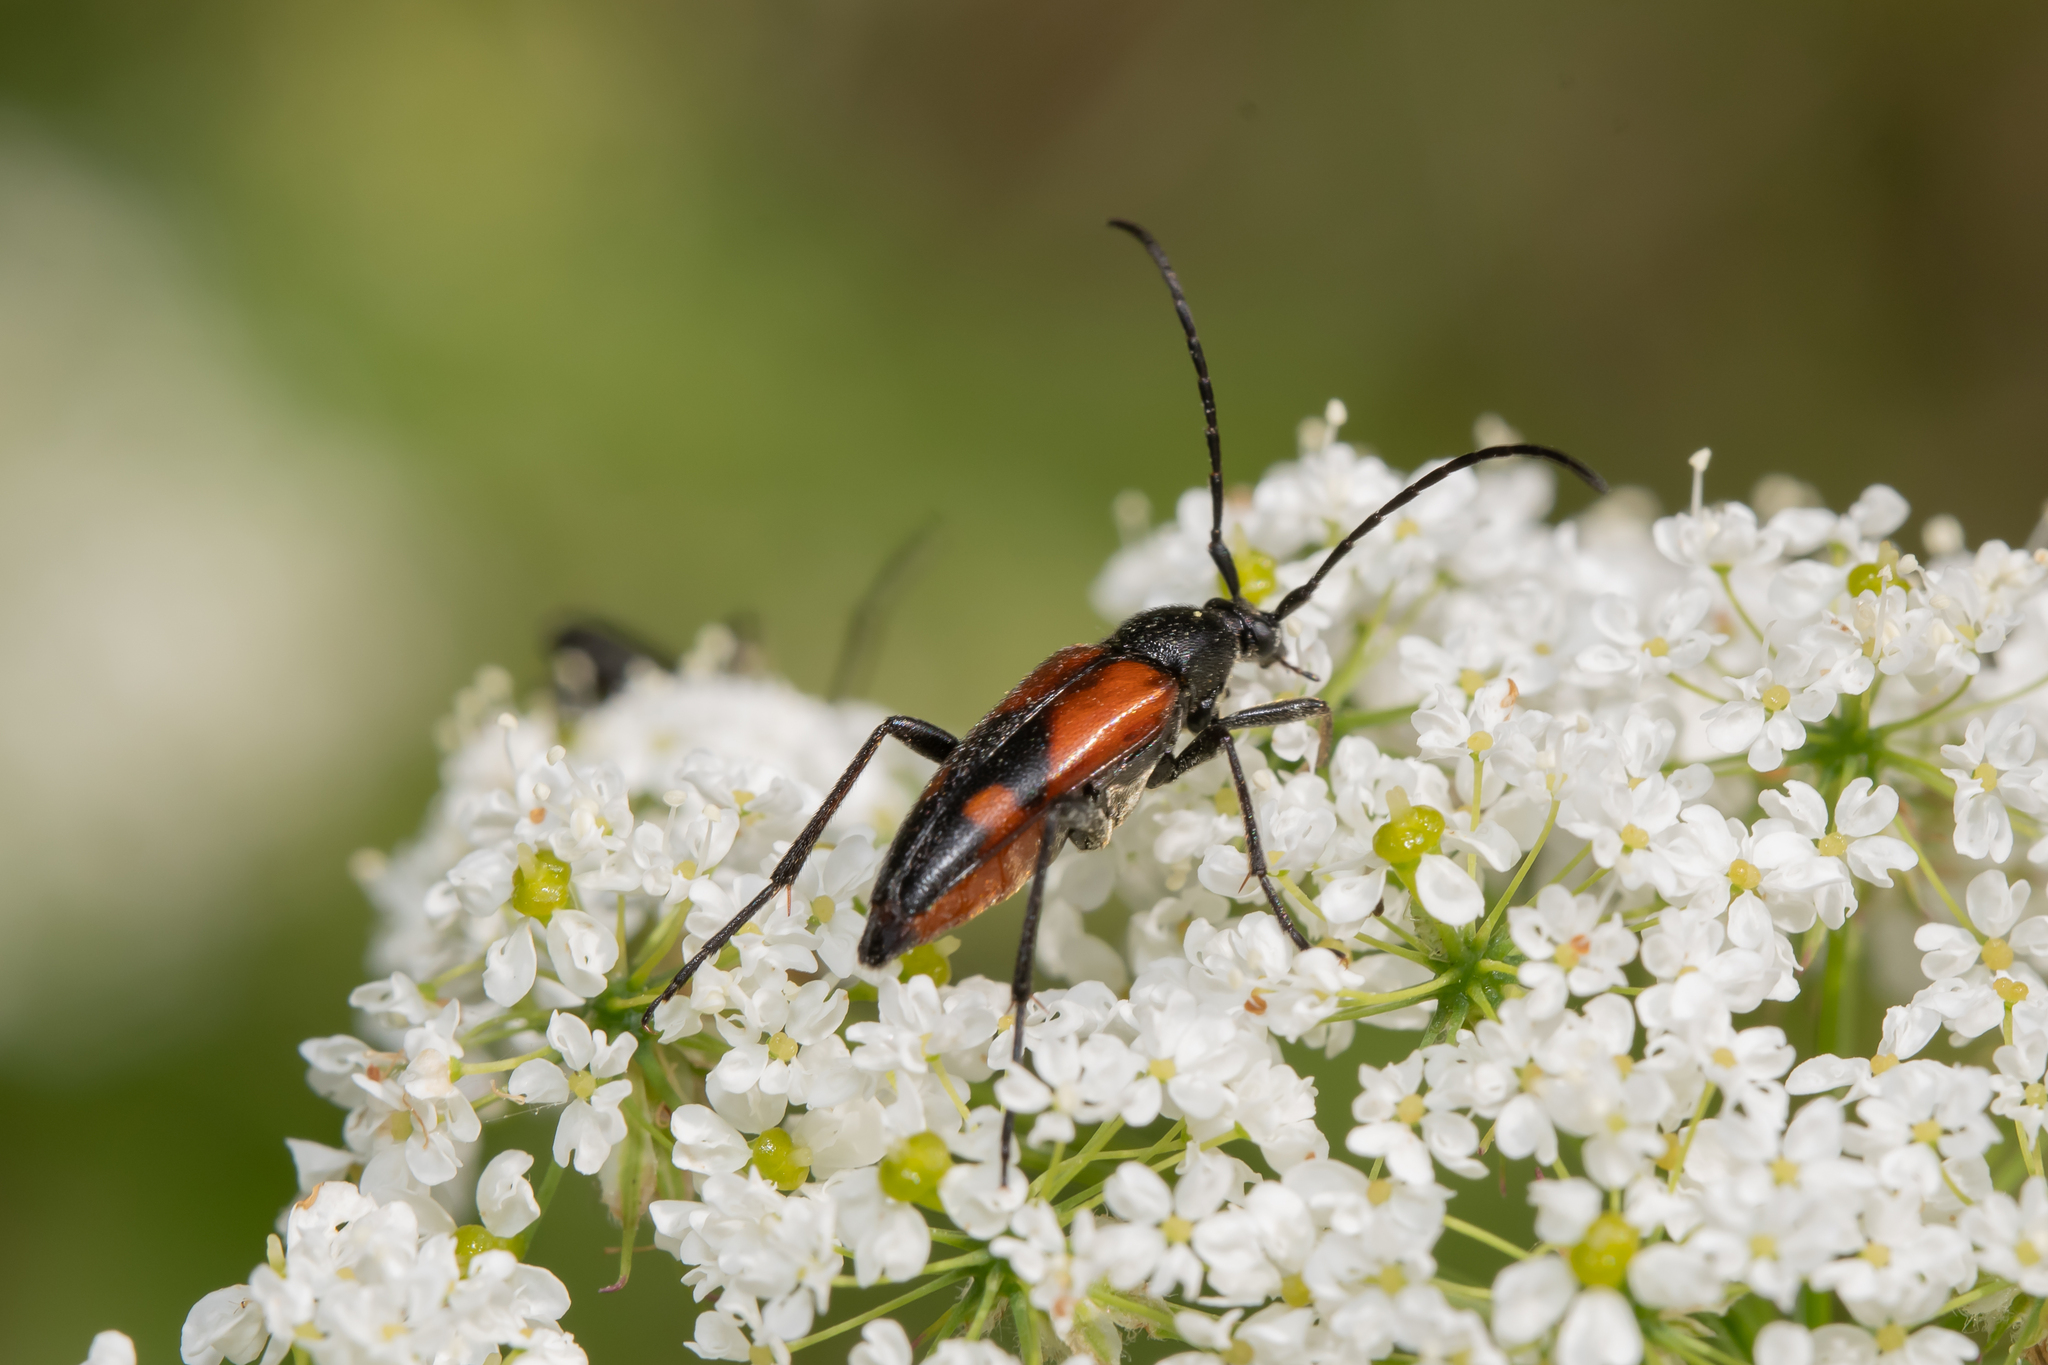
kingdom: Animalia
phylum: Arthropoda
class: Insecta
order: Coleoptera
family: Cerambycidae
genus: Stenurella
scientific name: Stenurella bifasciata
